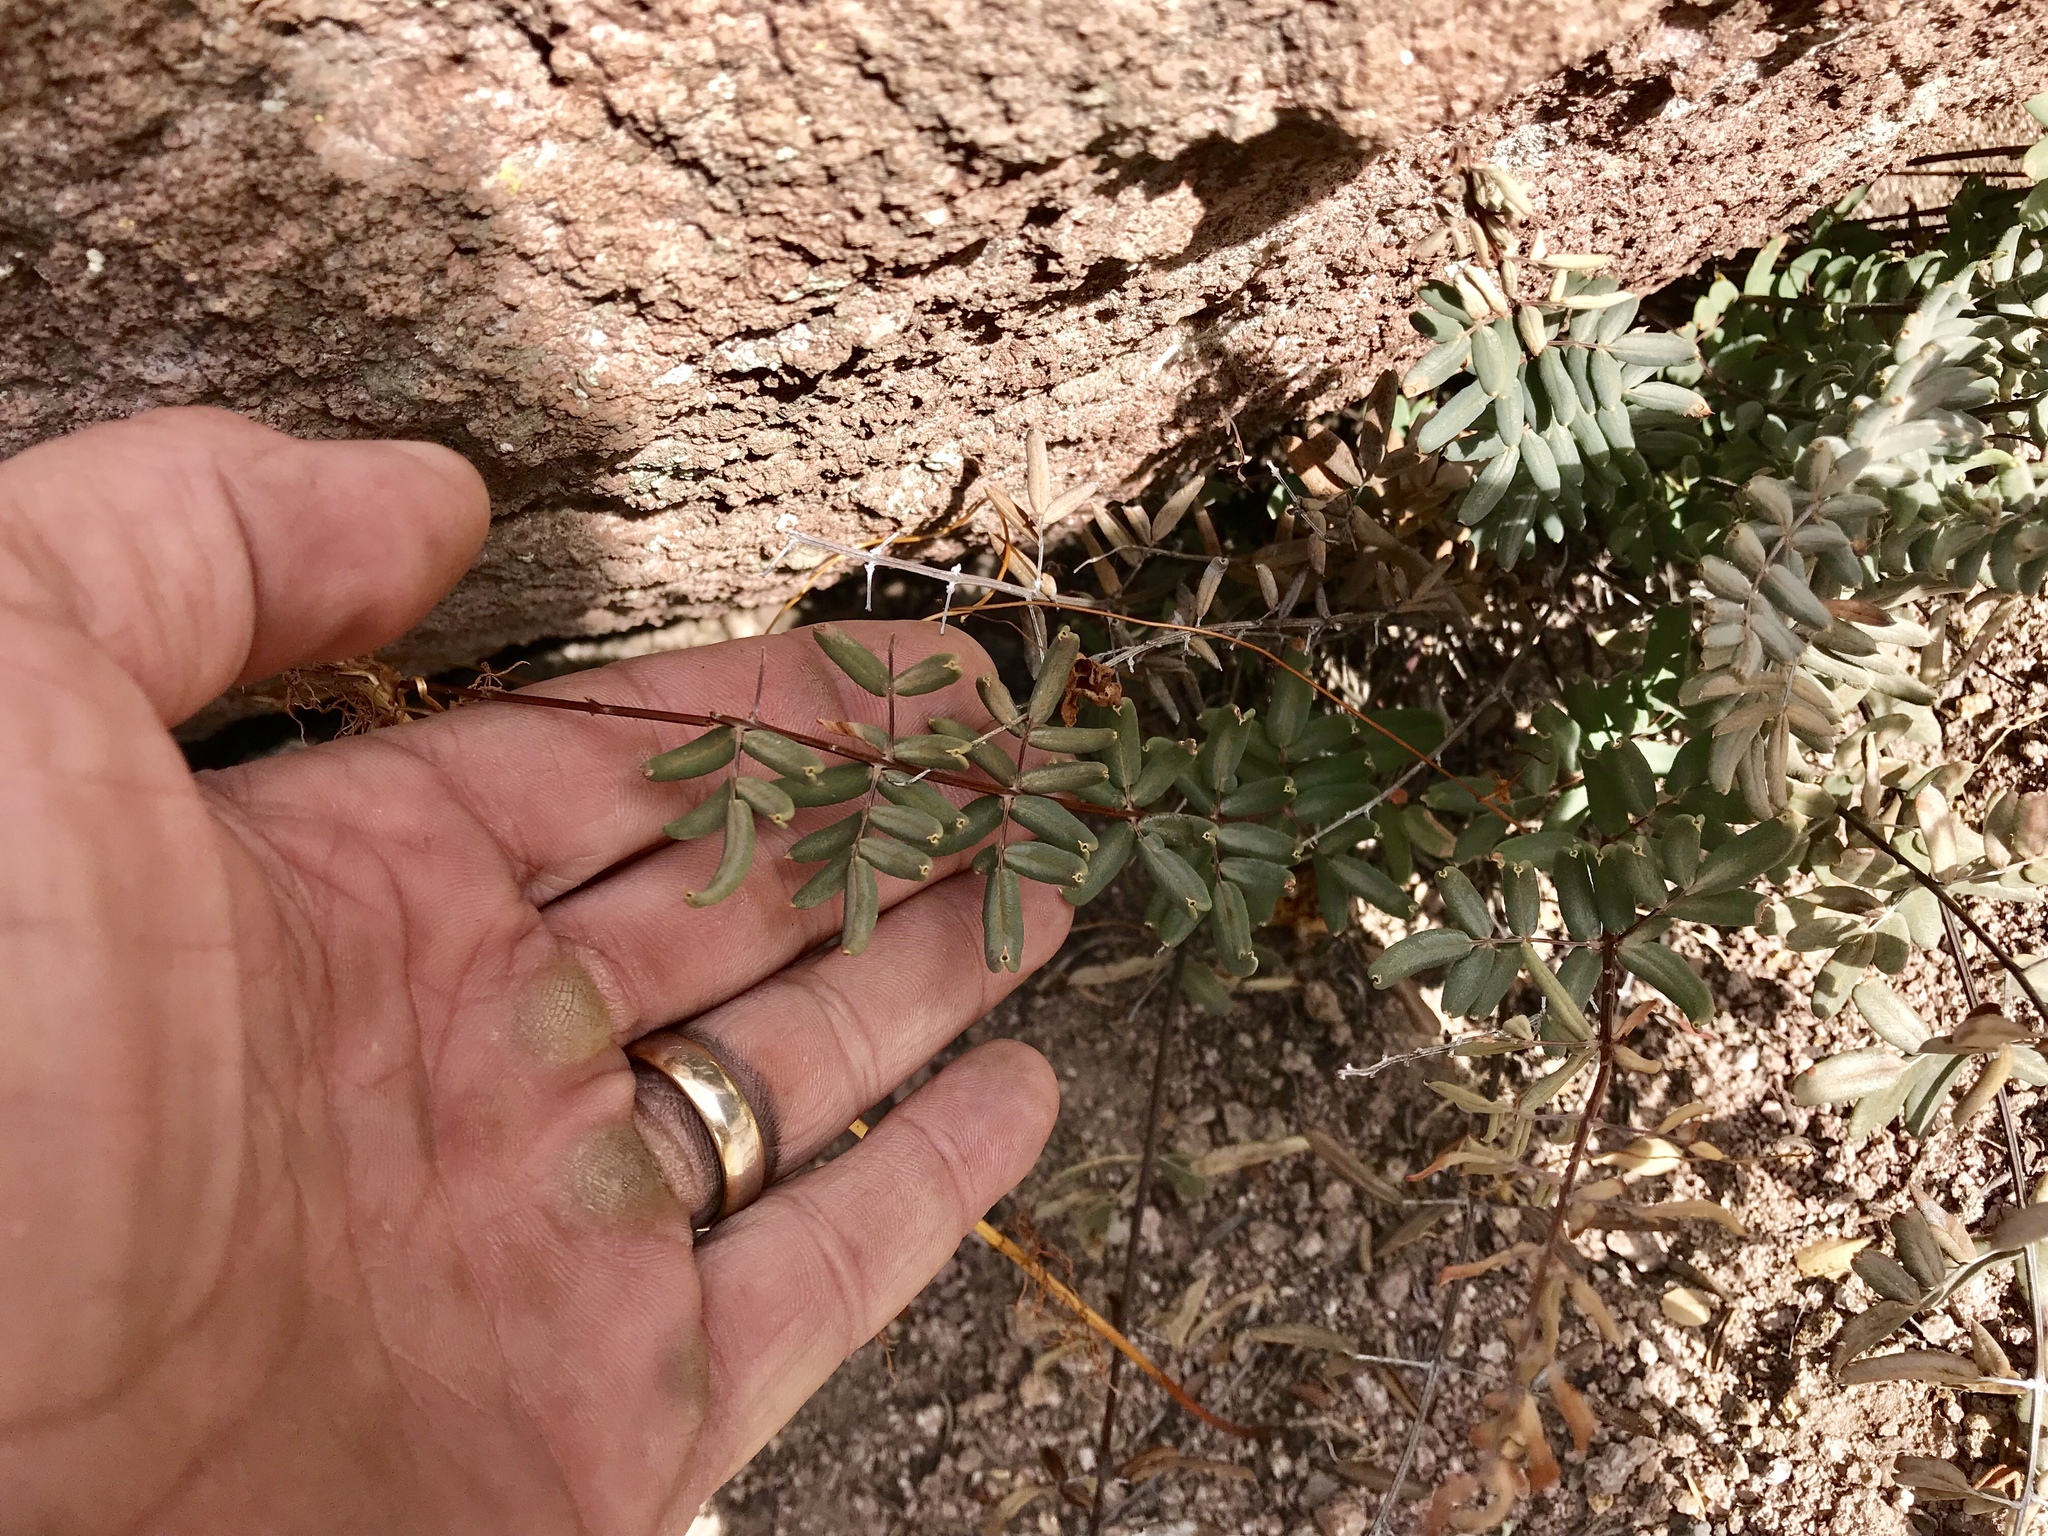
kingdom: Plantae
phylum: Tracheophyta
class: Polypodiopsida
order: Polypodiales
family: Pteridaceae
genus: Pellaea
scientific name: Pellaea wrightiana
